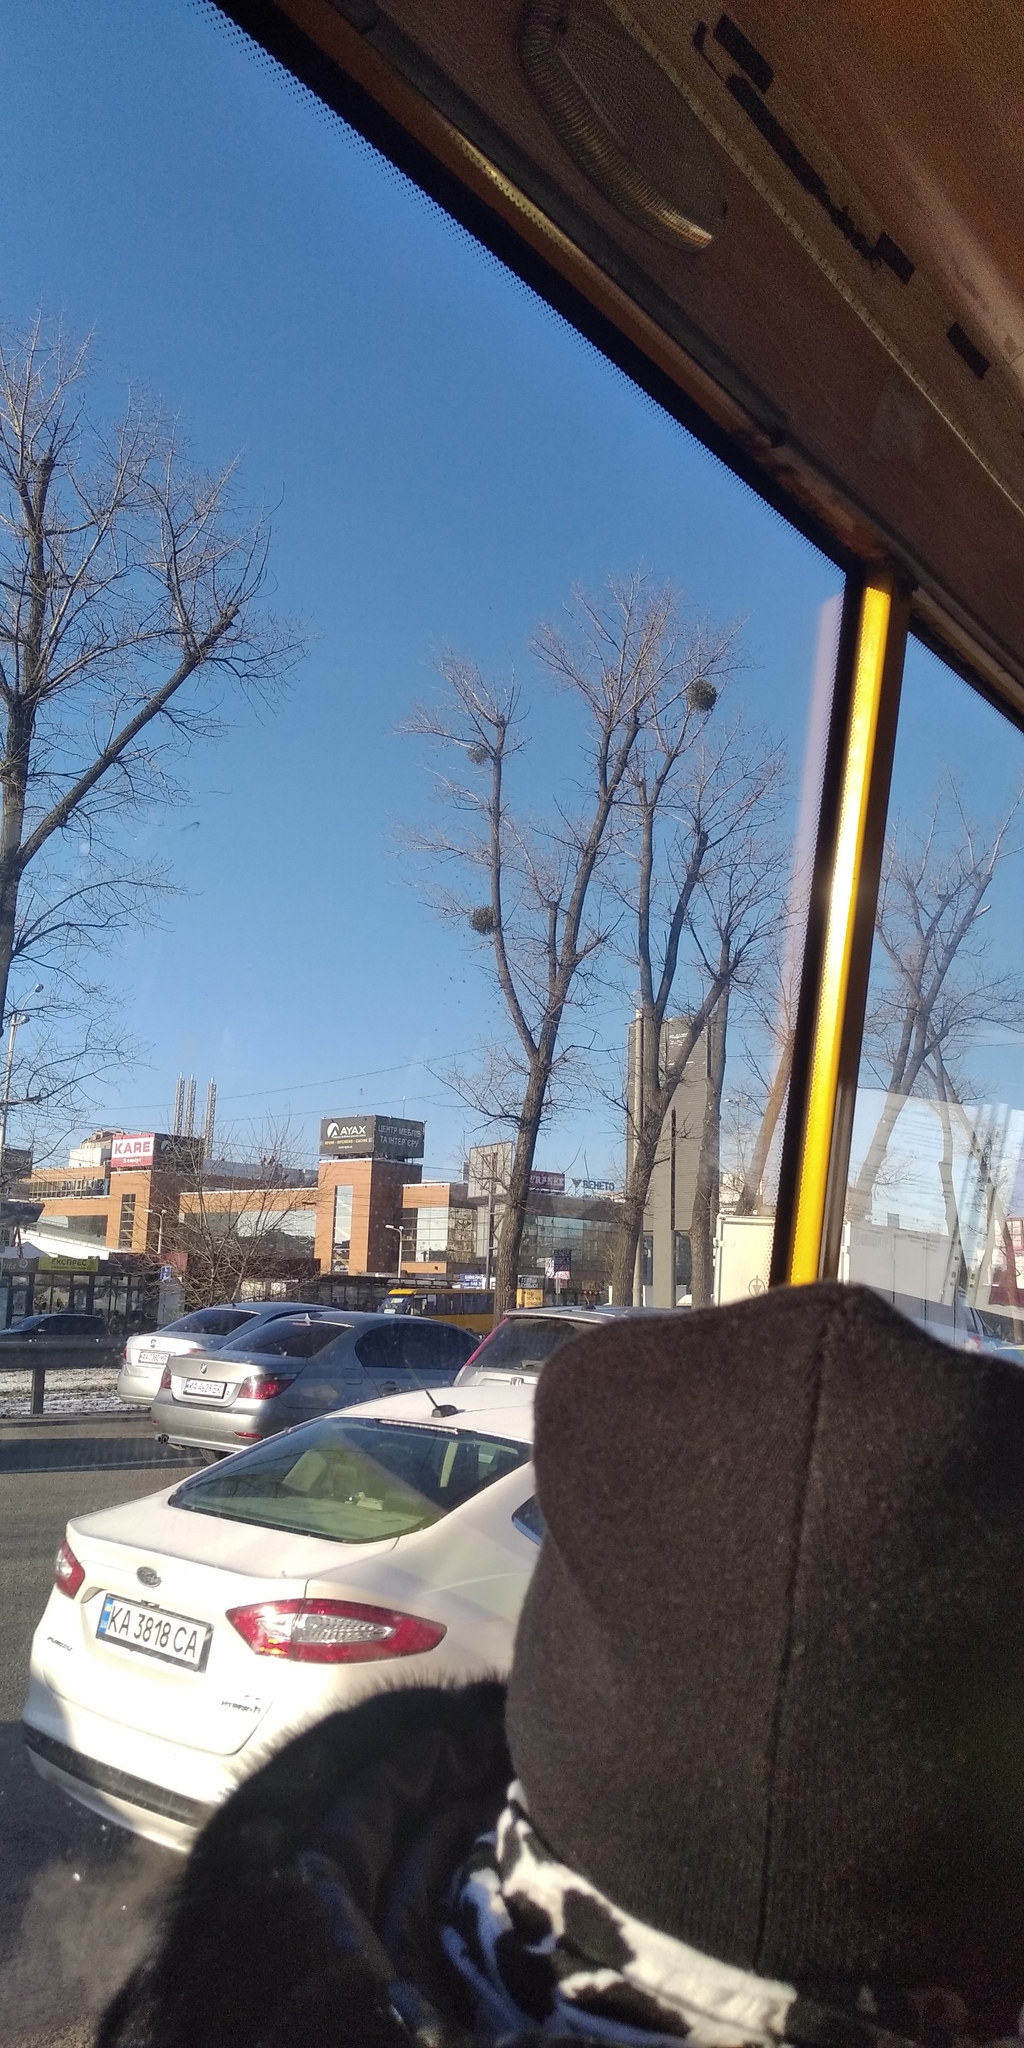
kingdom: Plantae
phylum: Tracheophyta
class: Magnoliopsida
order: Santalales
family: Viscaceae
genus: Viscum
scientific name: Viscum album
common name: Mistletoe
